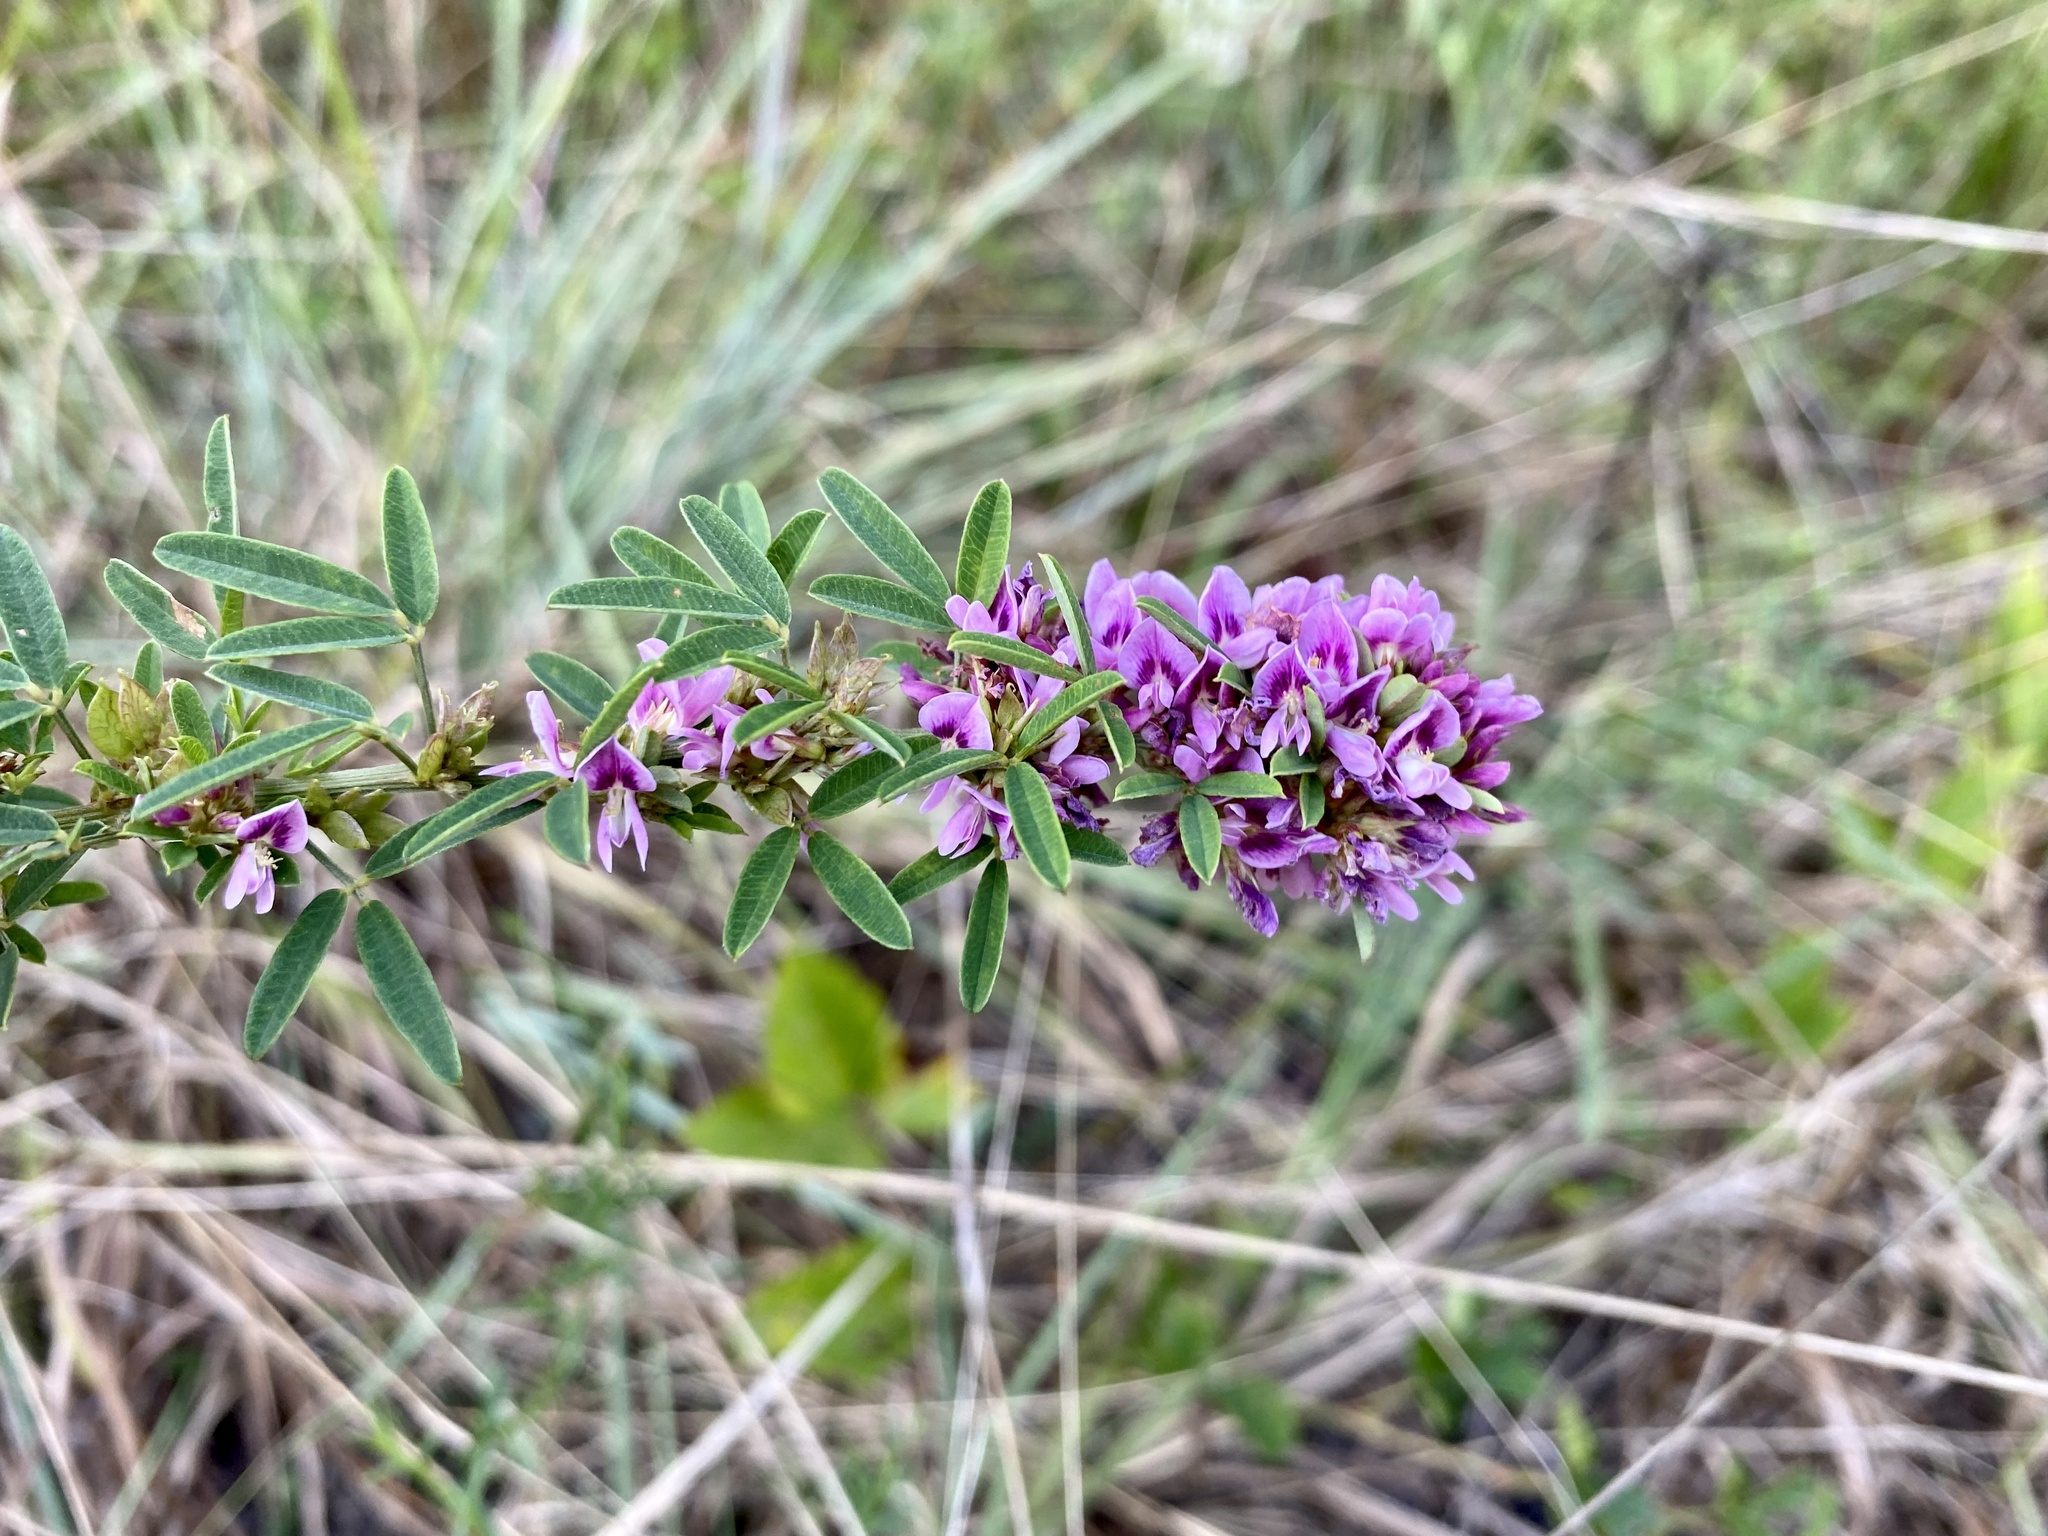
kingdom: Plantae
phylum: Tracheophyta
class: Magnoliopsida
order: Fabales
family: Fabaceae
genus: Lespedeza
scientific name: Lespedeza virginica
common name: Slender bush-clover
